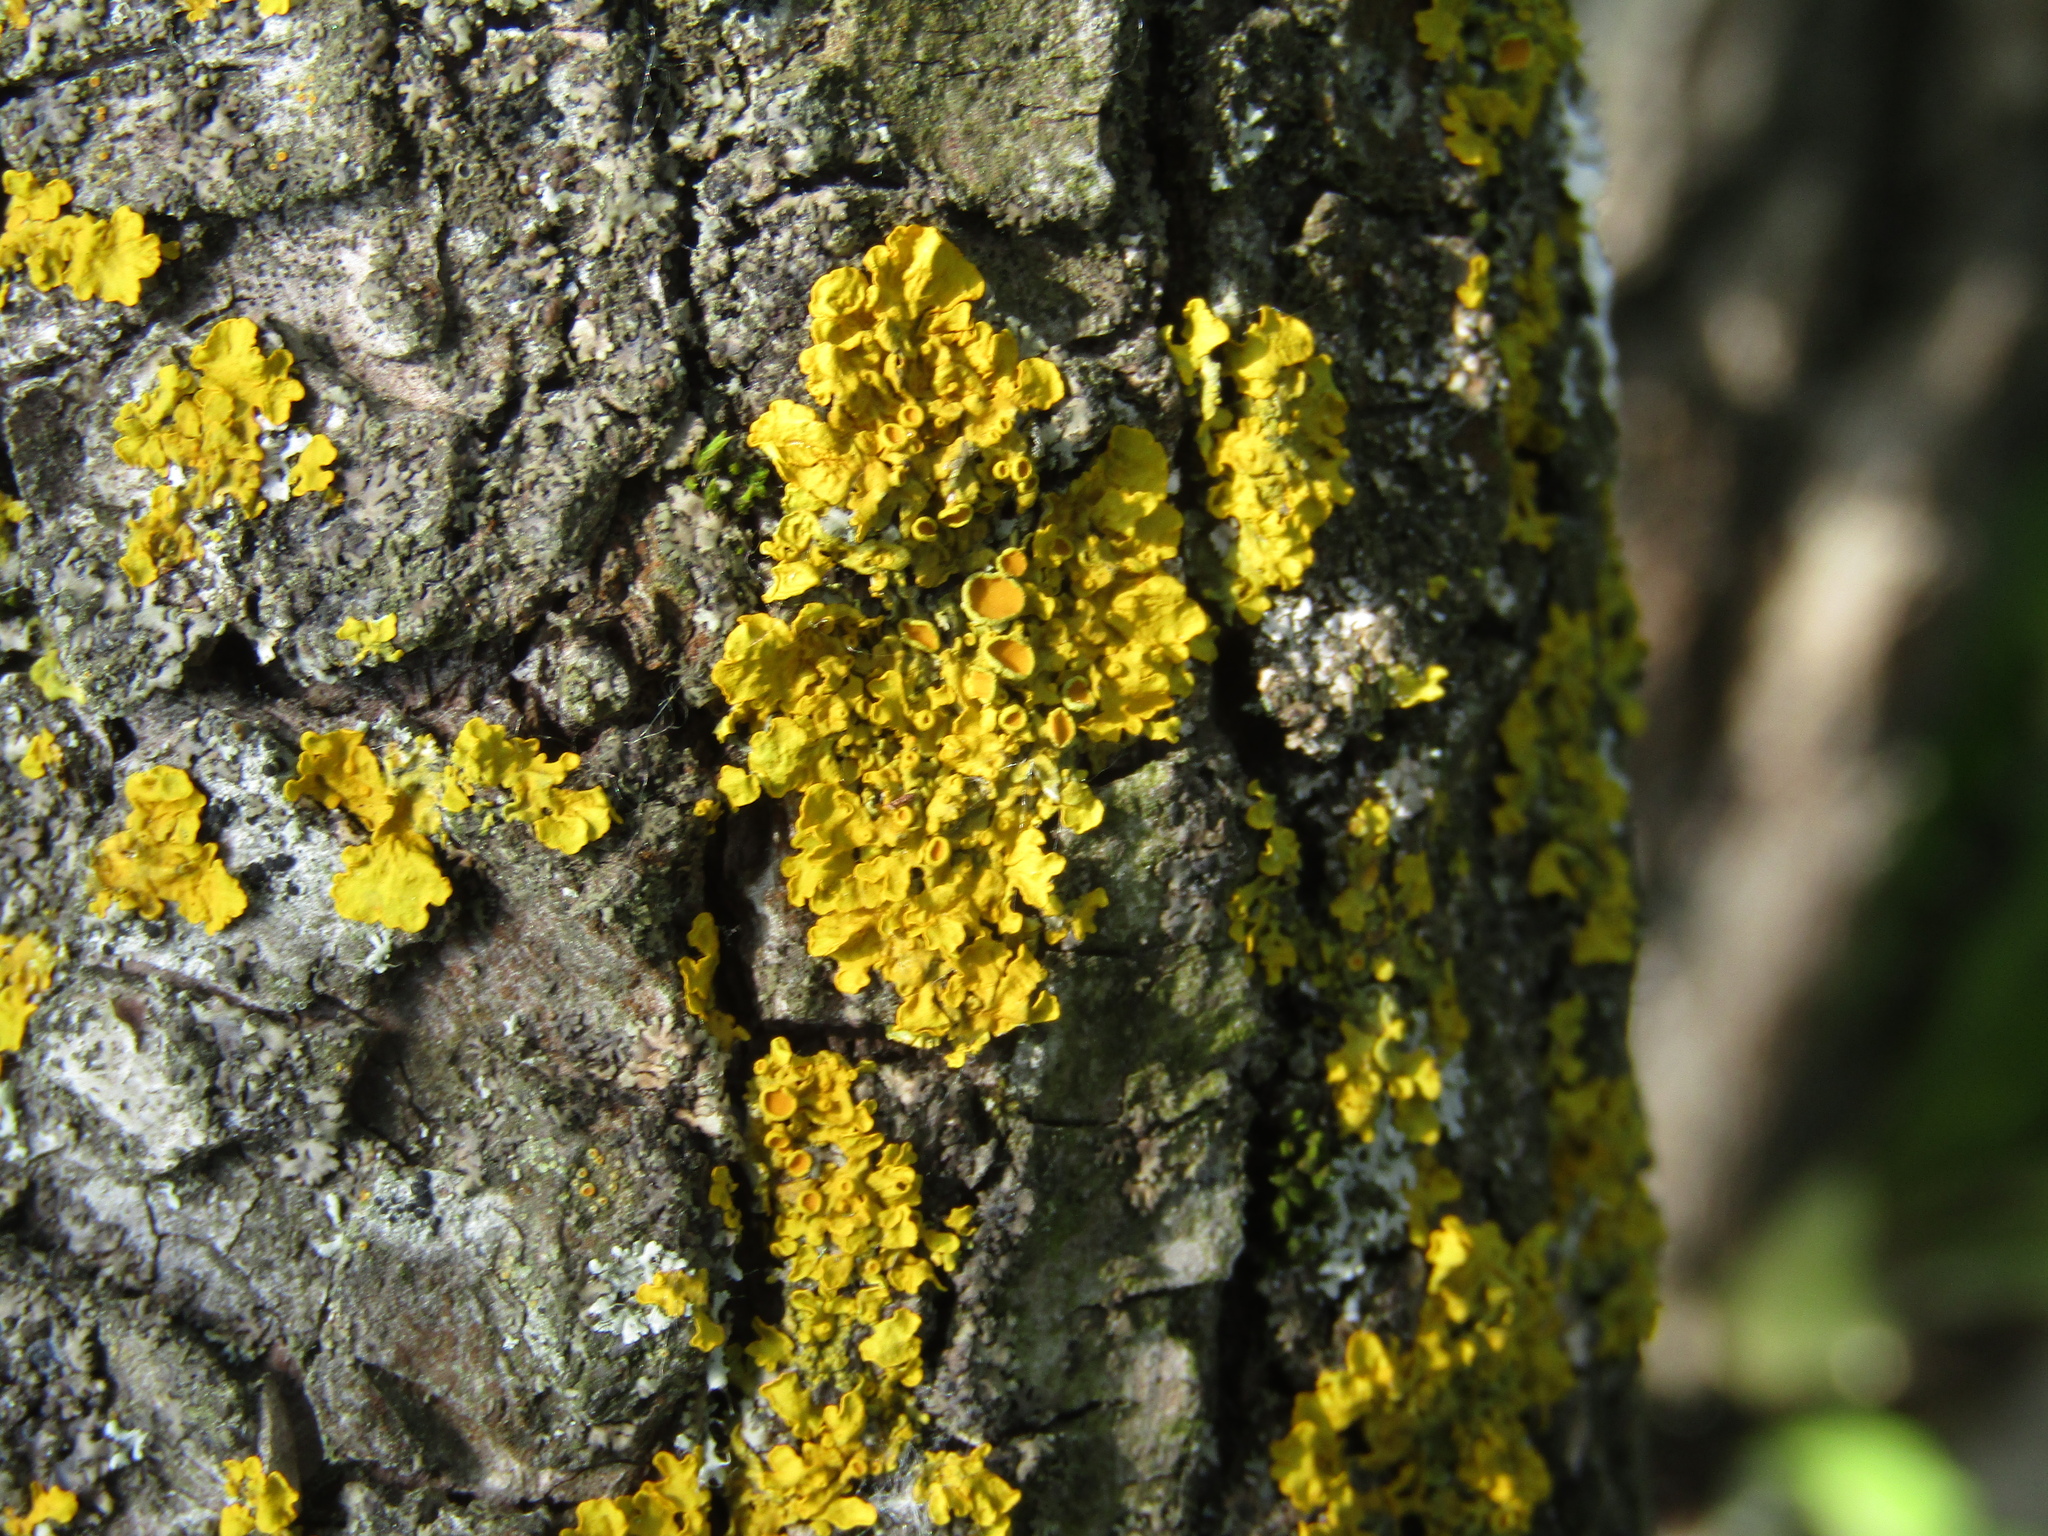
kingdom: Fungi
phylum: Ascomycota
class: Lecanoromycetes
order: Teloschistales
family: Teloschistaceae
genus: Xanthoria
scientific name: Xanthoria parietina
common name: Common orange lichen
